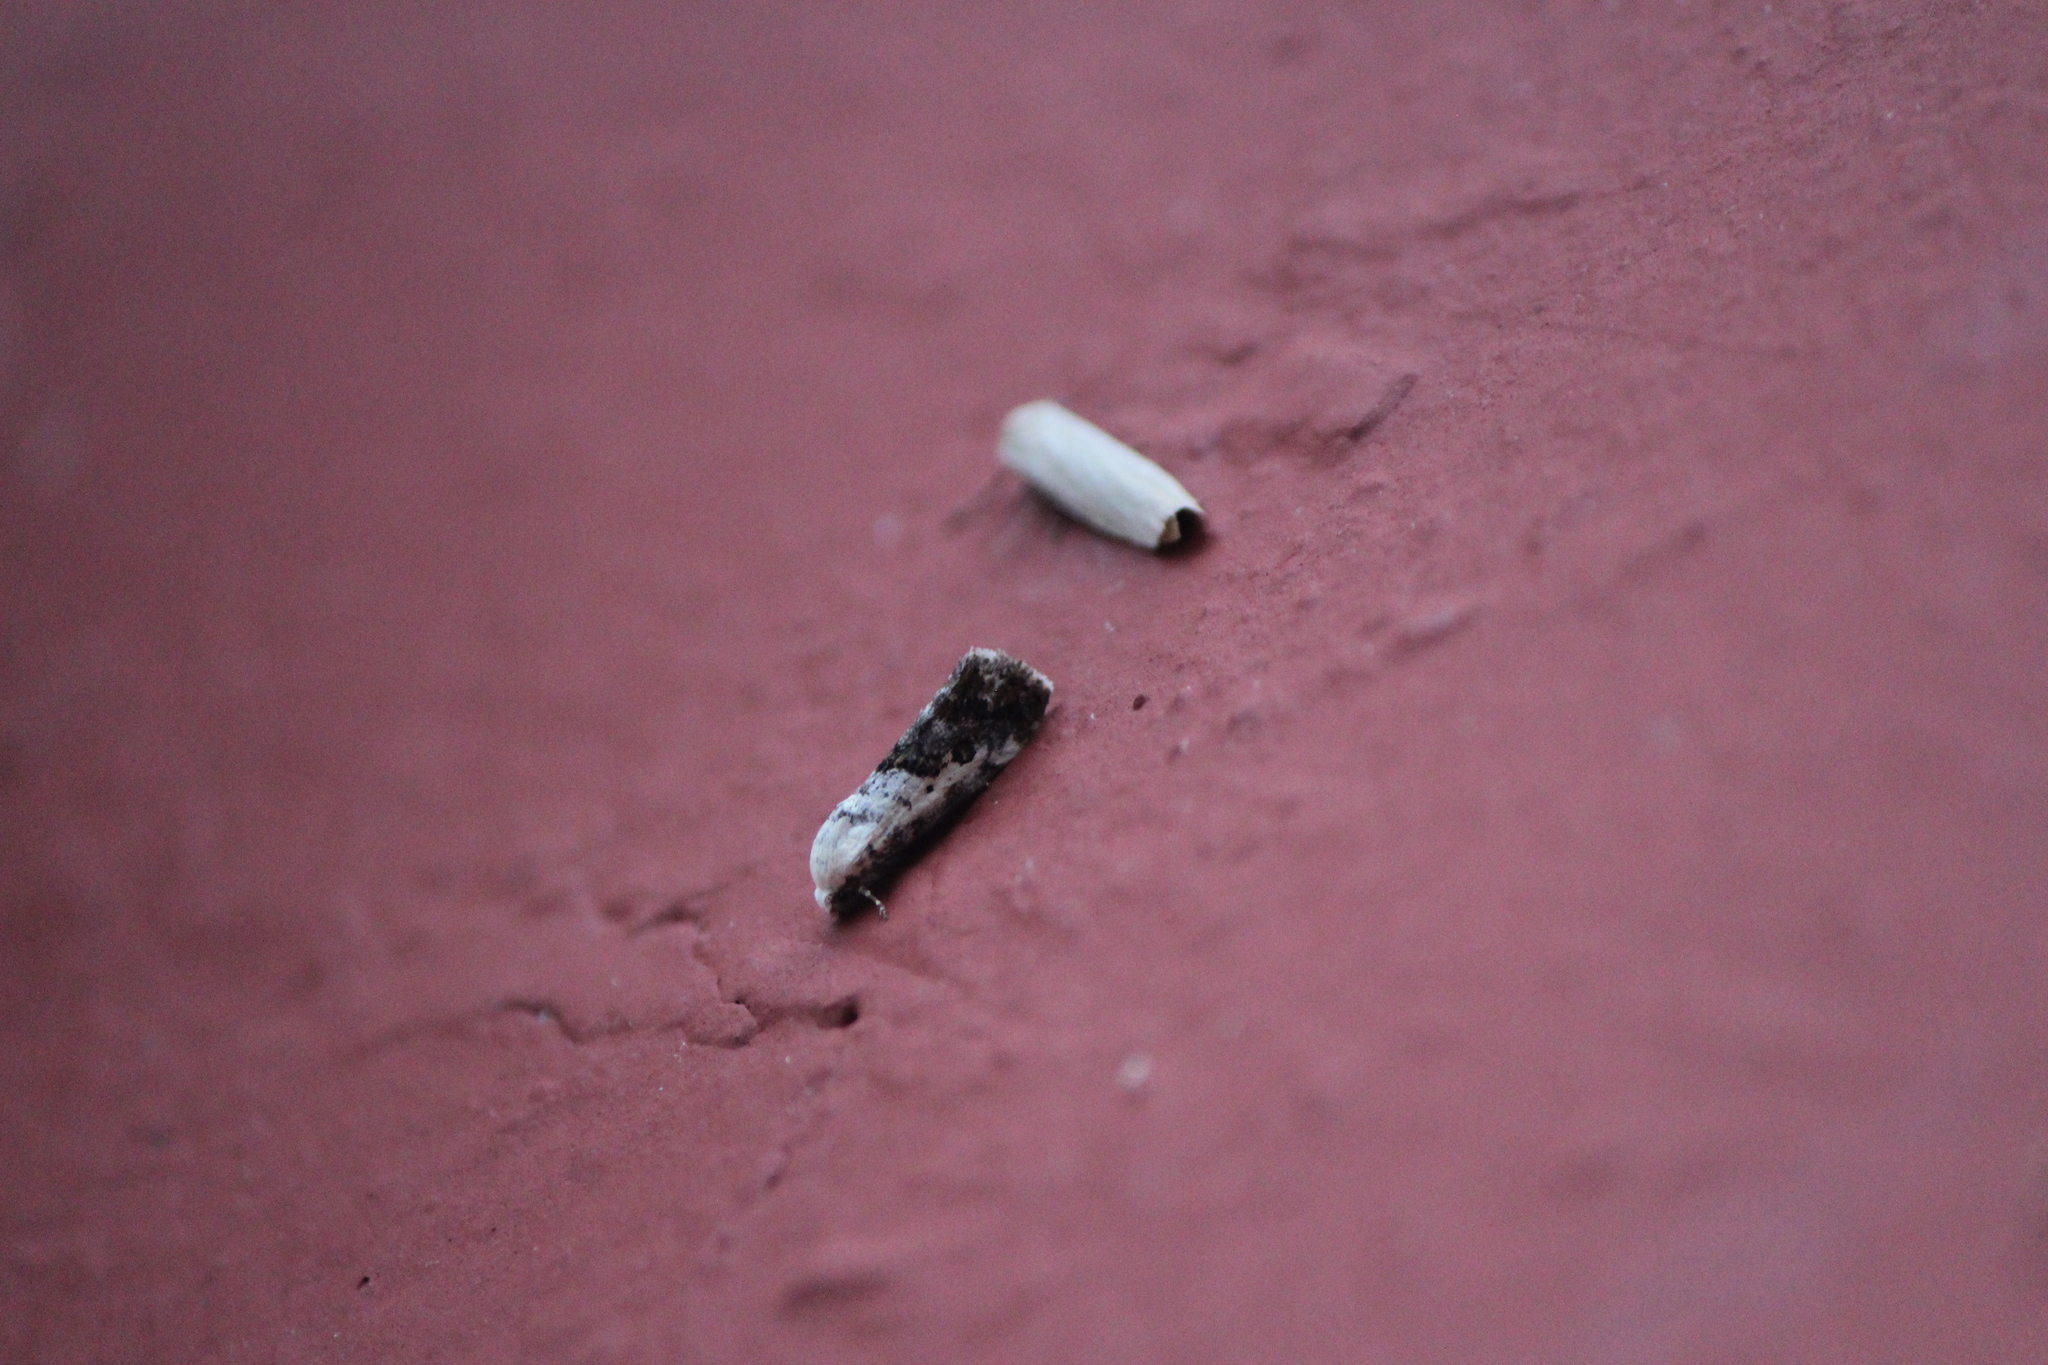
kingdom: Animalia
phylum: Arthropoda
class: Insecta
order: Lepidoptera
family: Noctuidae
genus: Acontia
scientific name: Acontia aprica
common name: Nun
